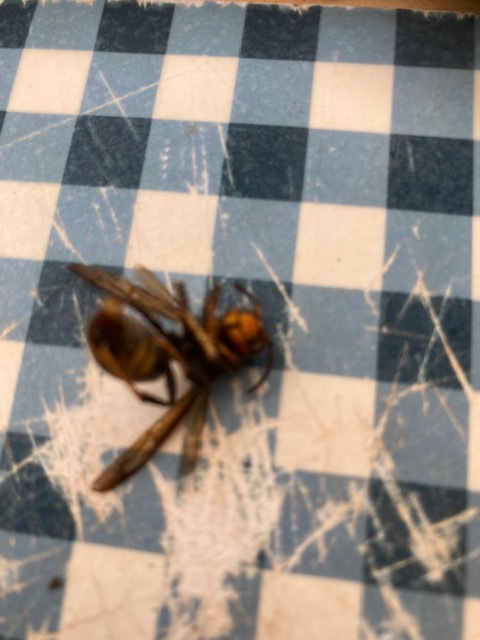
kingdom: Animalia
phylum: Arthropoda
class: Insecta
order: Hymenoptera
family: Vespidae
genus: Vespa
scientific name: Vespa velutina
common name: Asian hornet
